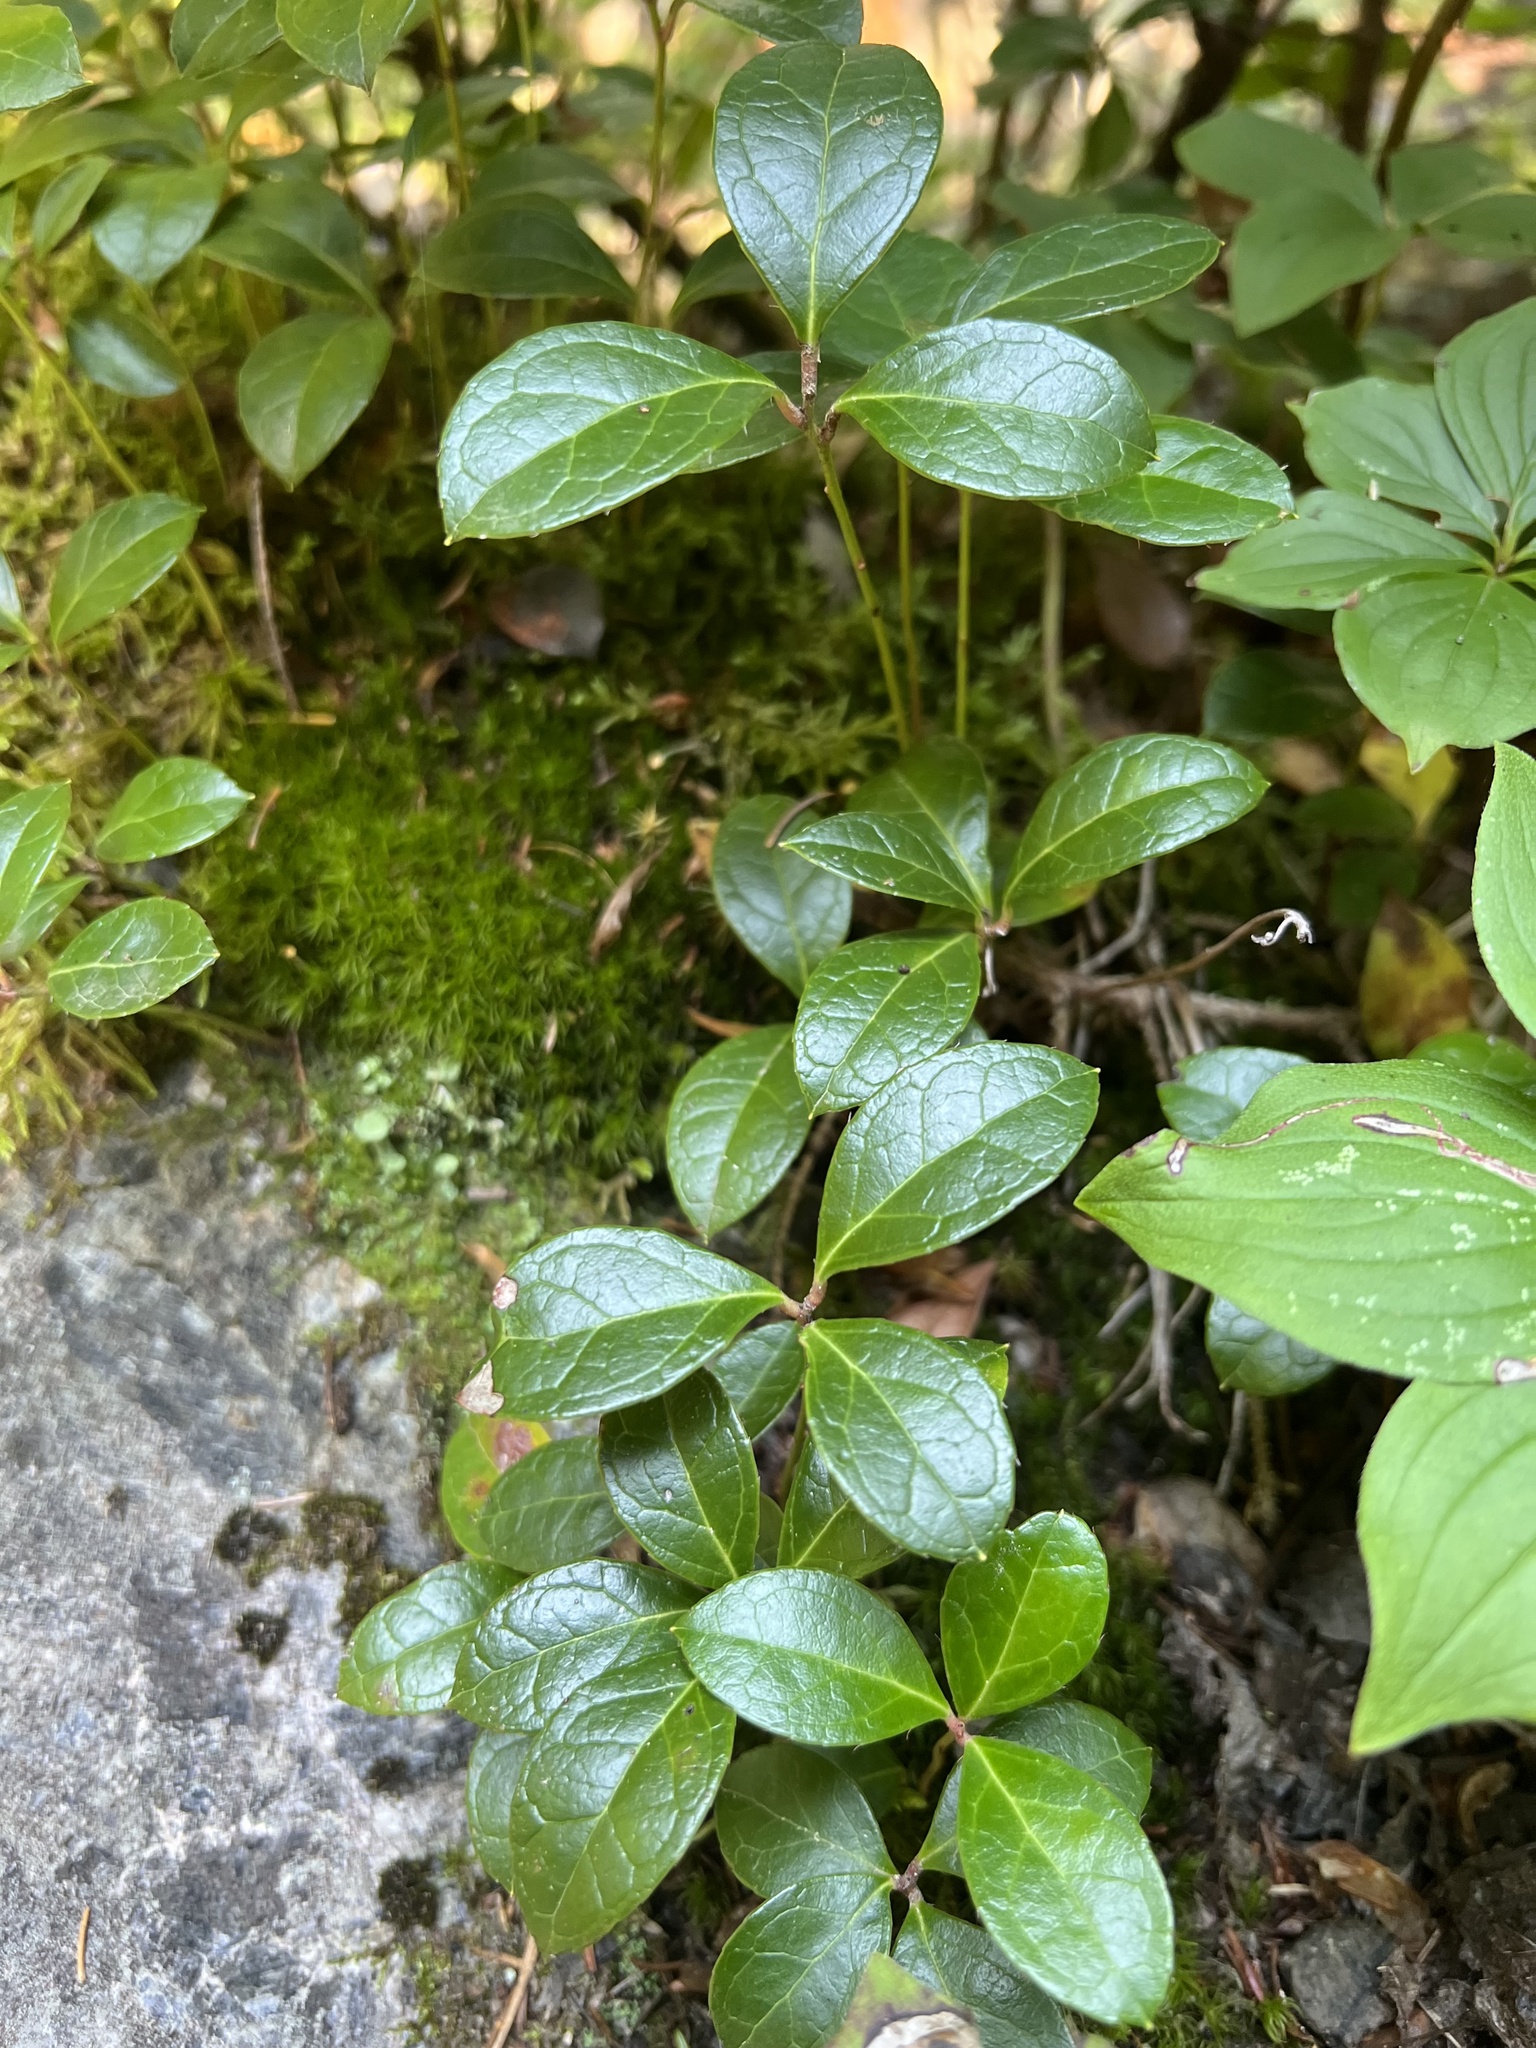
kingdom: Plantae
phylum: Tracheophyta
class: Magnoliopsida
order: Ericales
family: Ericaceae
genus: Gaultheria
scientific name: Gaultheria procumbens
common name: Checkerberry
